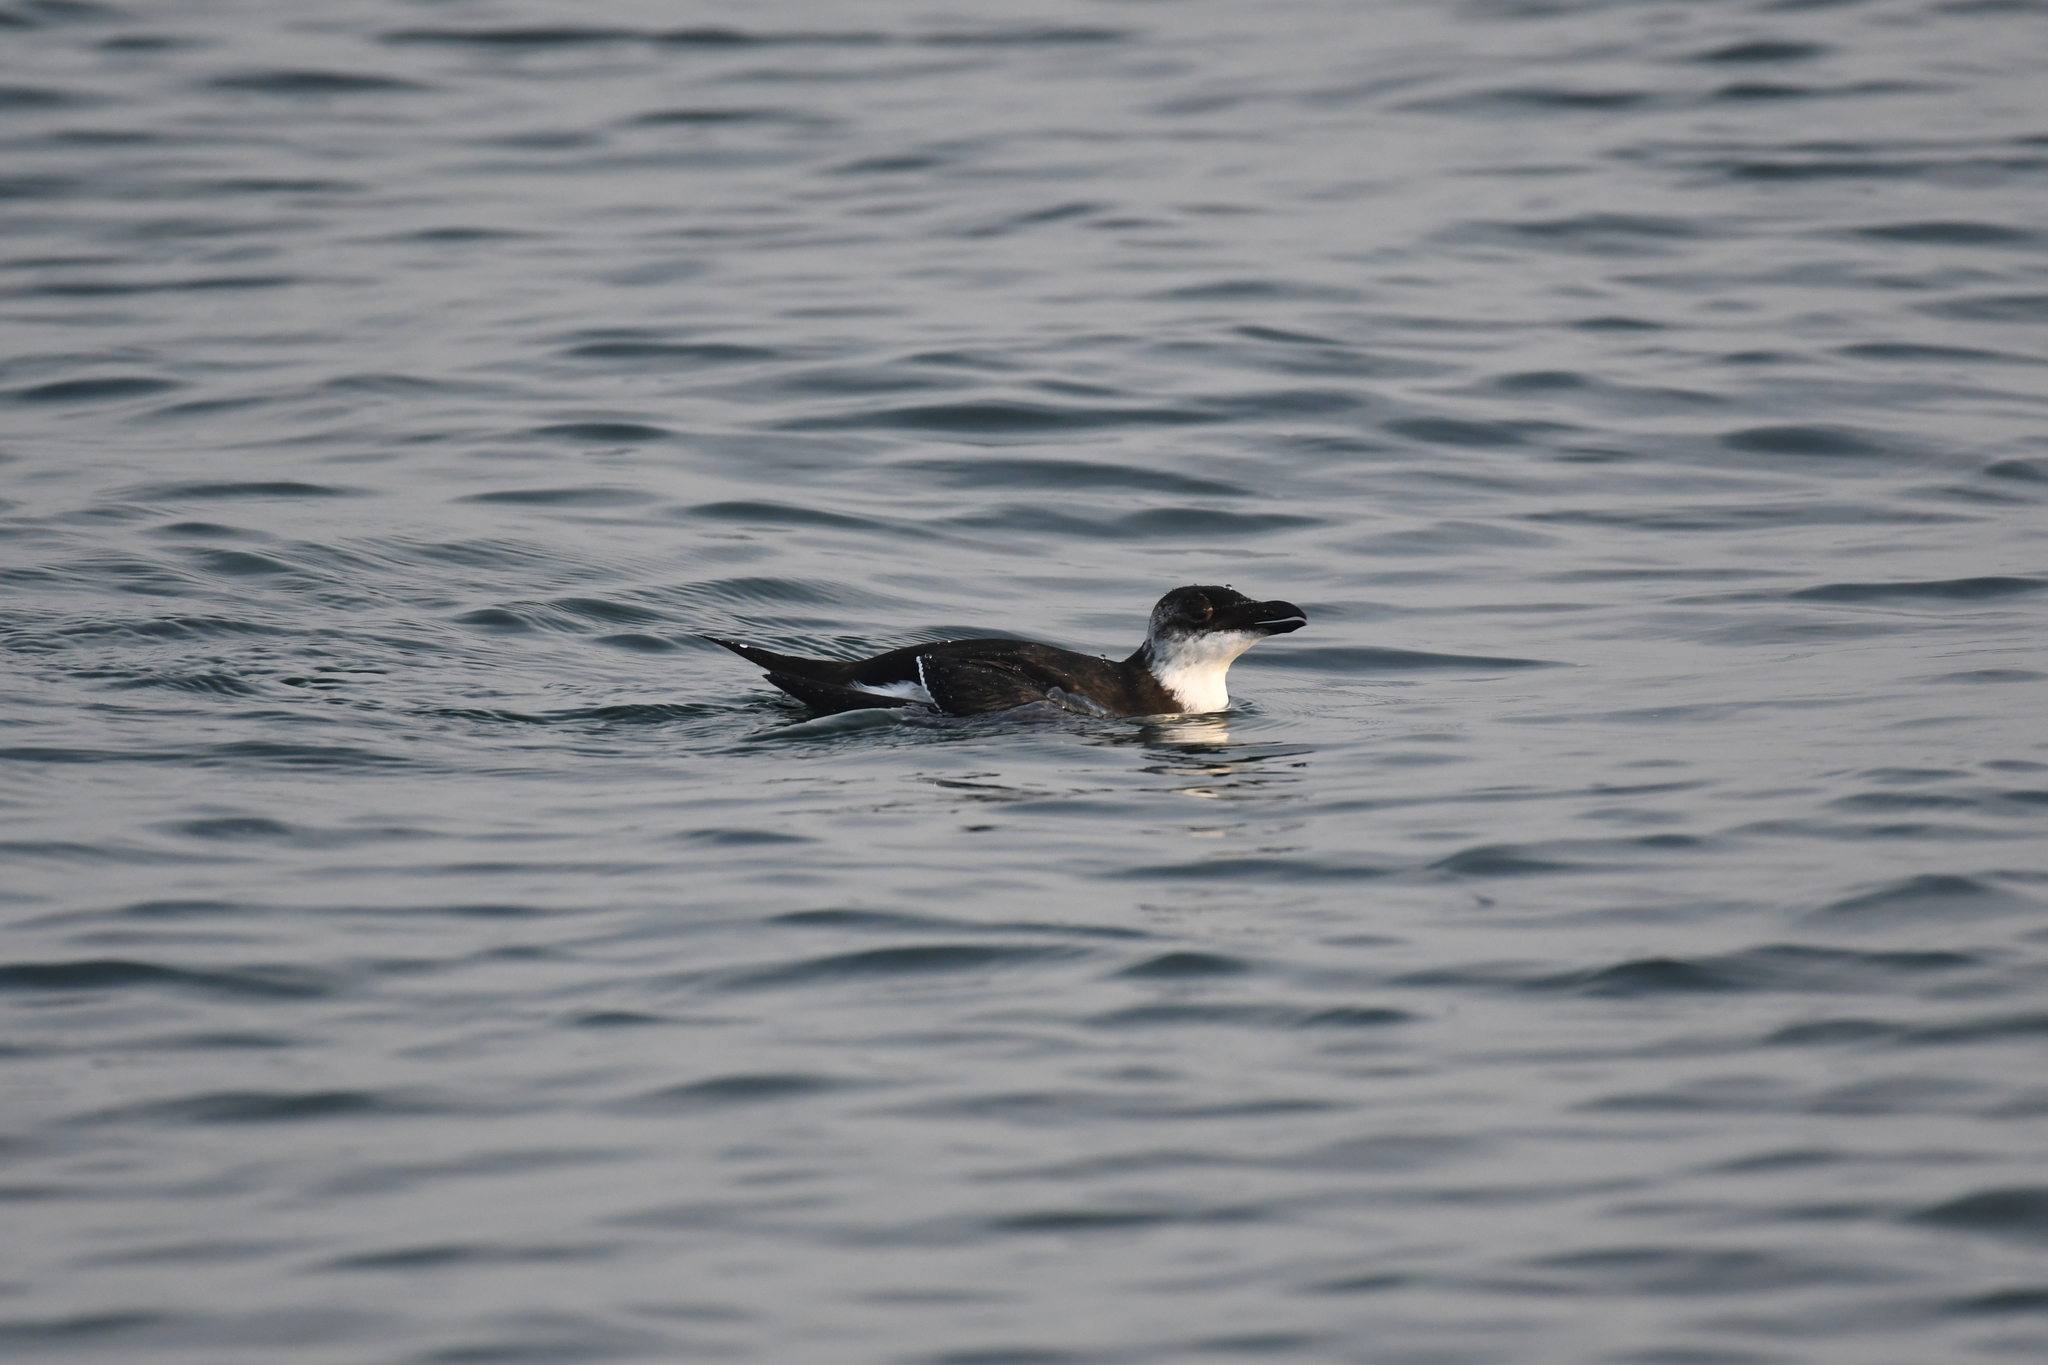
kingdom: Animalia
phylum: Chordata
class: Aves
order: Charadriiformes
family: Alcidae
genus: Alca
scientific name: Alca torda
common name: Razorbill
